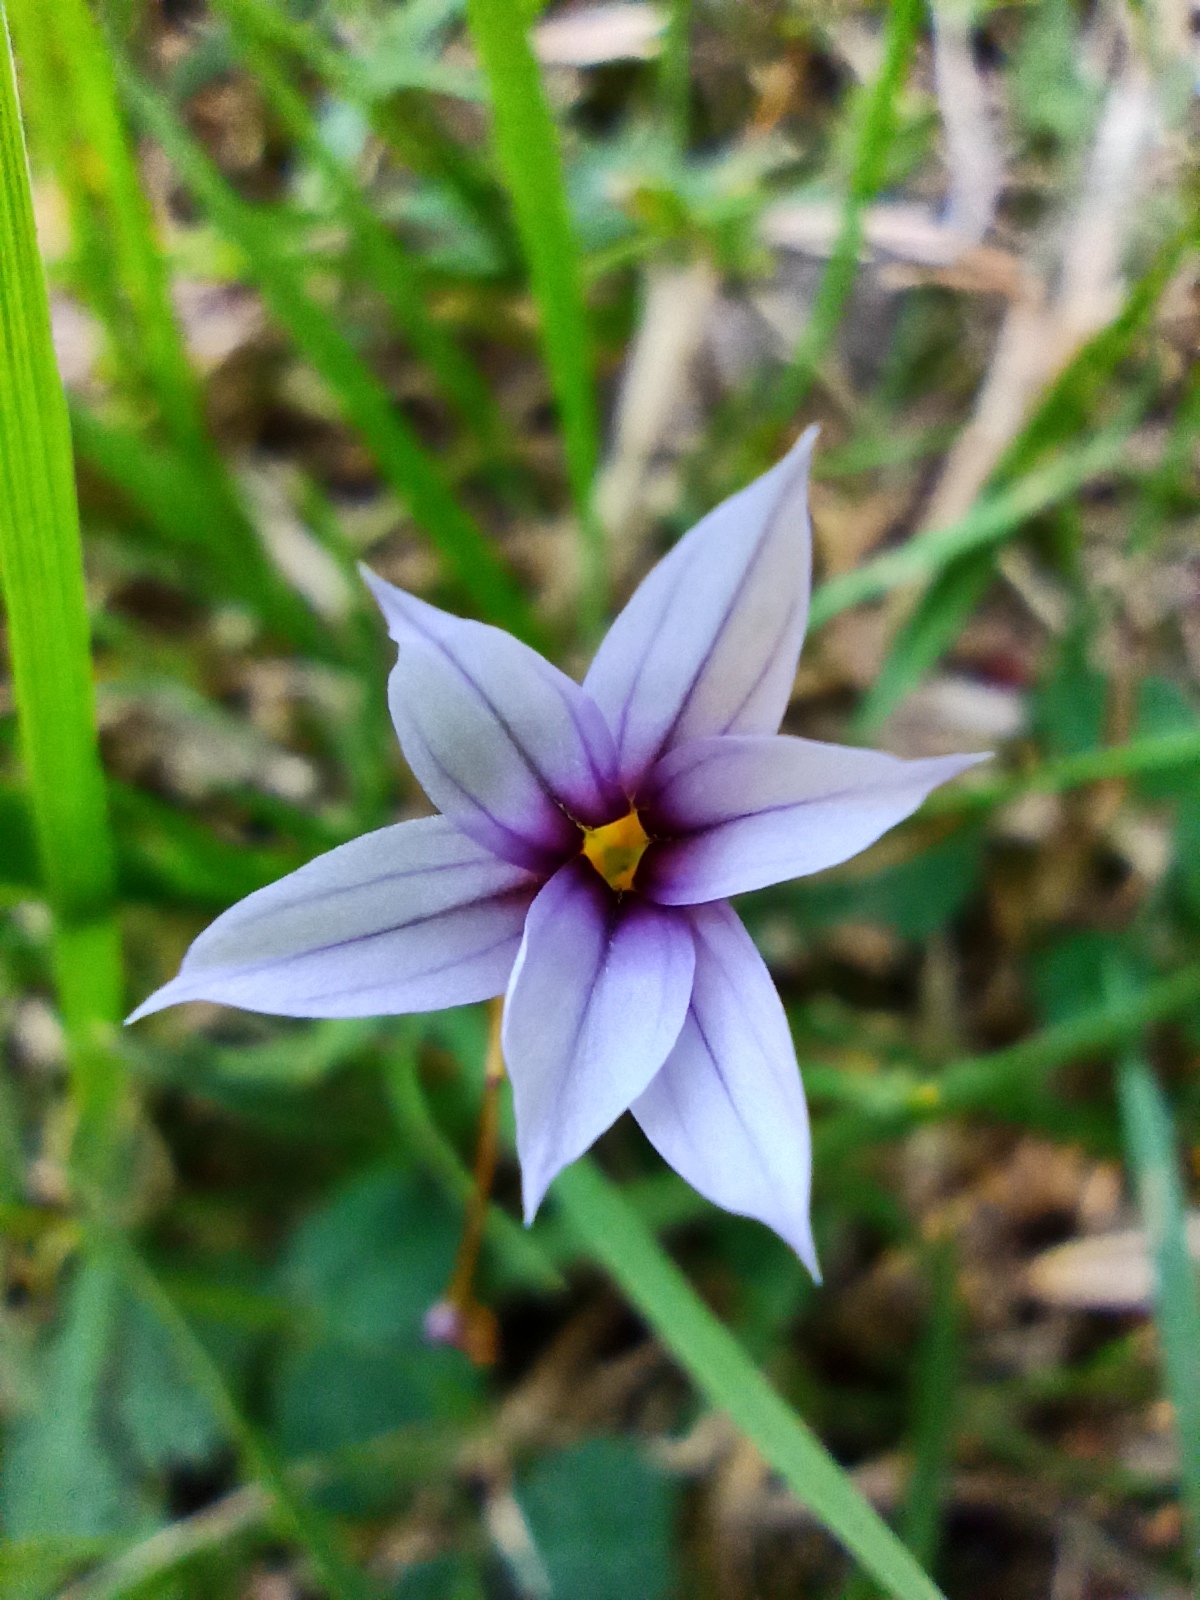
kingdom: Plantae
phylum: Tracheophyta
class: Liliopsida
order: Asparagales
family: Iridaceae
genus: Sisyrinchium
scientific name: Sisyrinchium micranthum
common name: Bermuda pigroot
